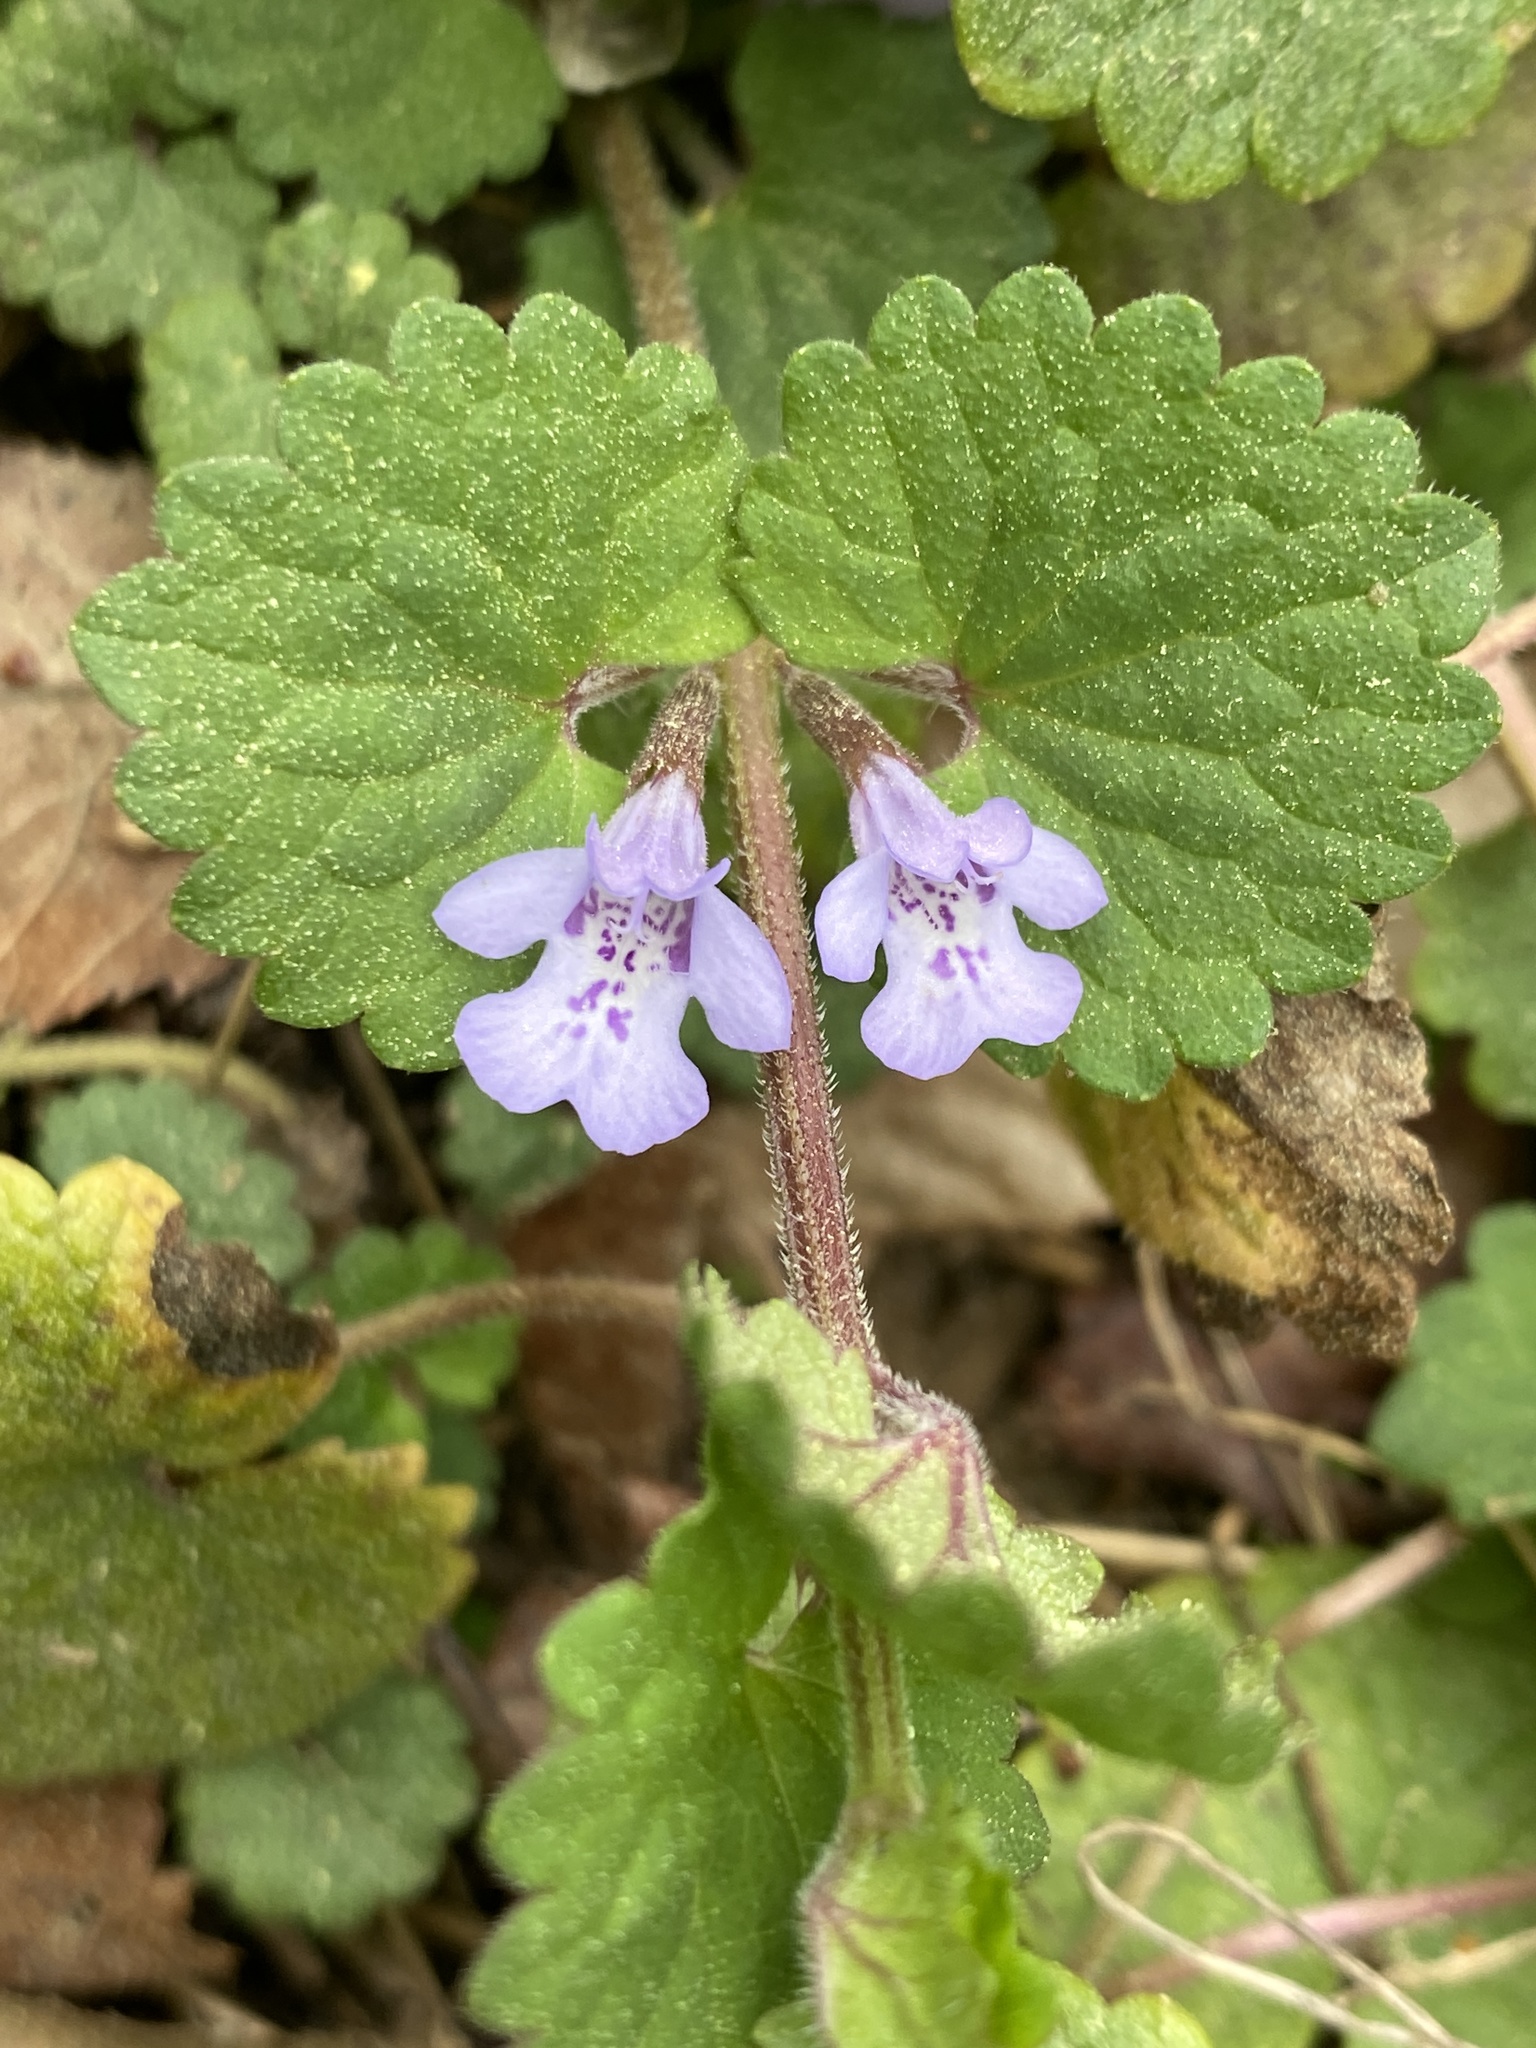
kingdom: Plantae
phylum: Tracheophyta
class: Magnoliopsida
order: Lamiales
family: Lamiaceae
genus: Glechoma
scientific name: Glechoma hederacea
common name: Ground ivy
